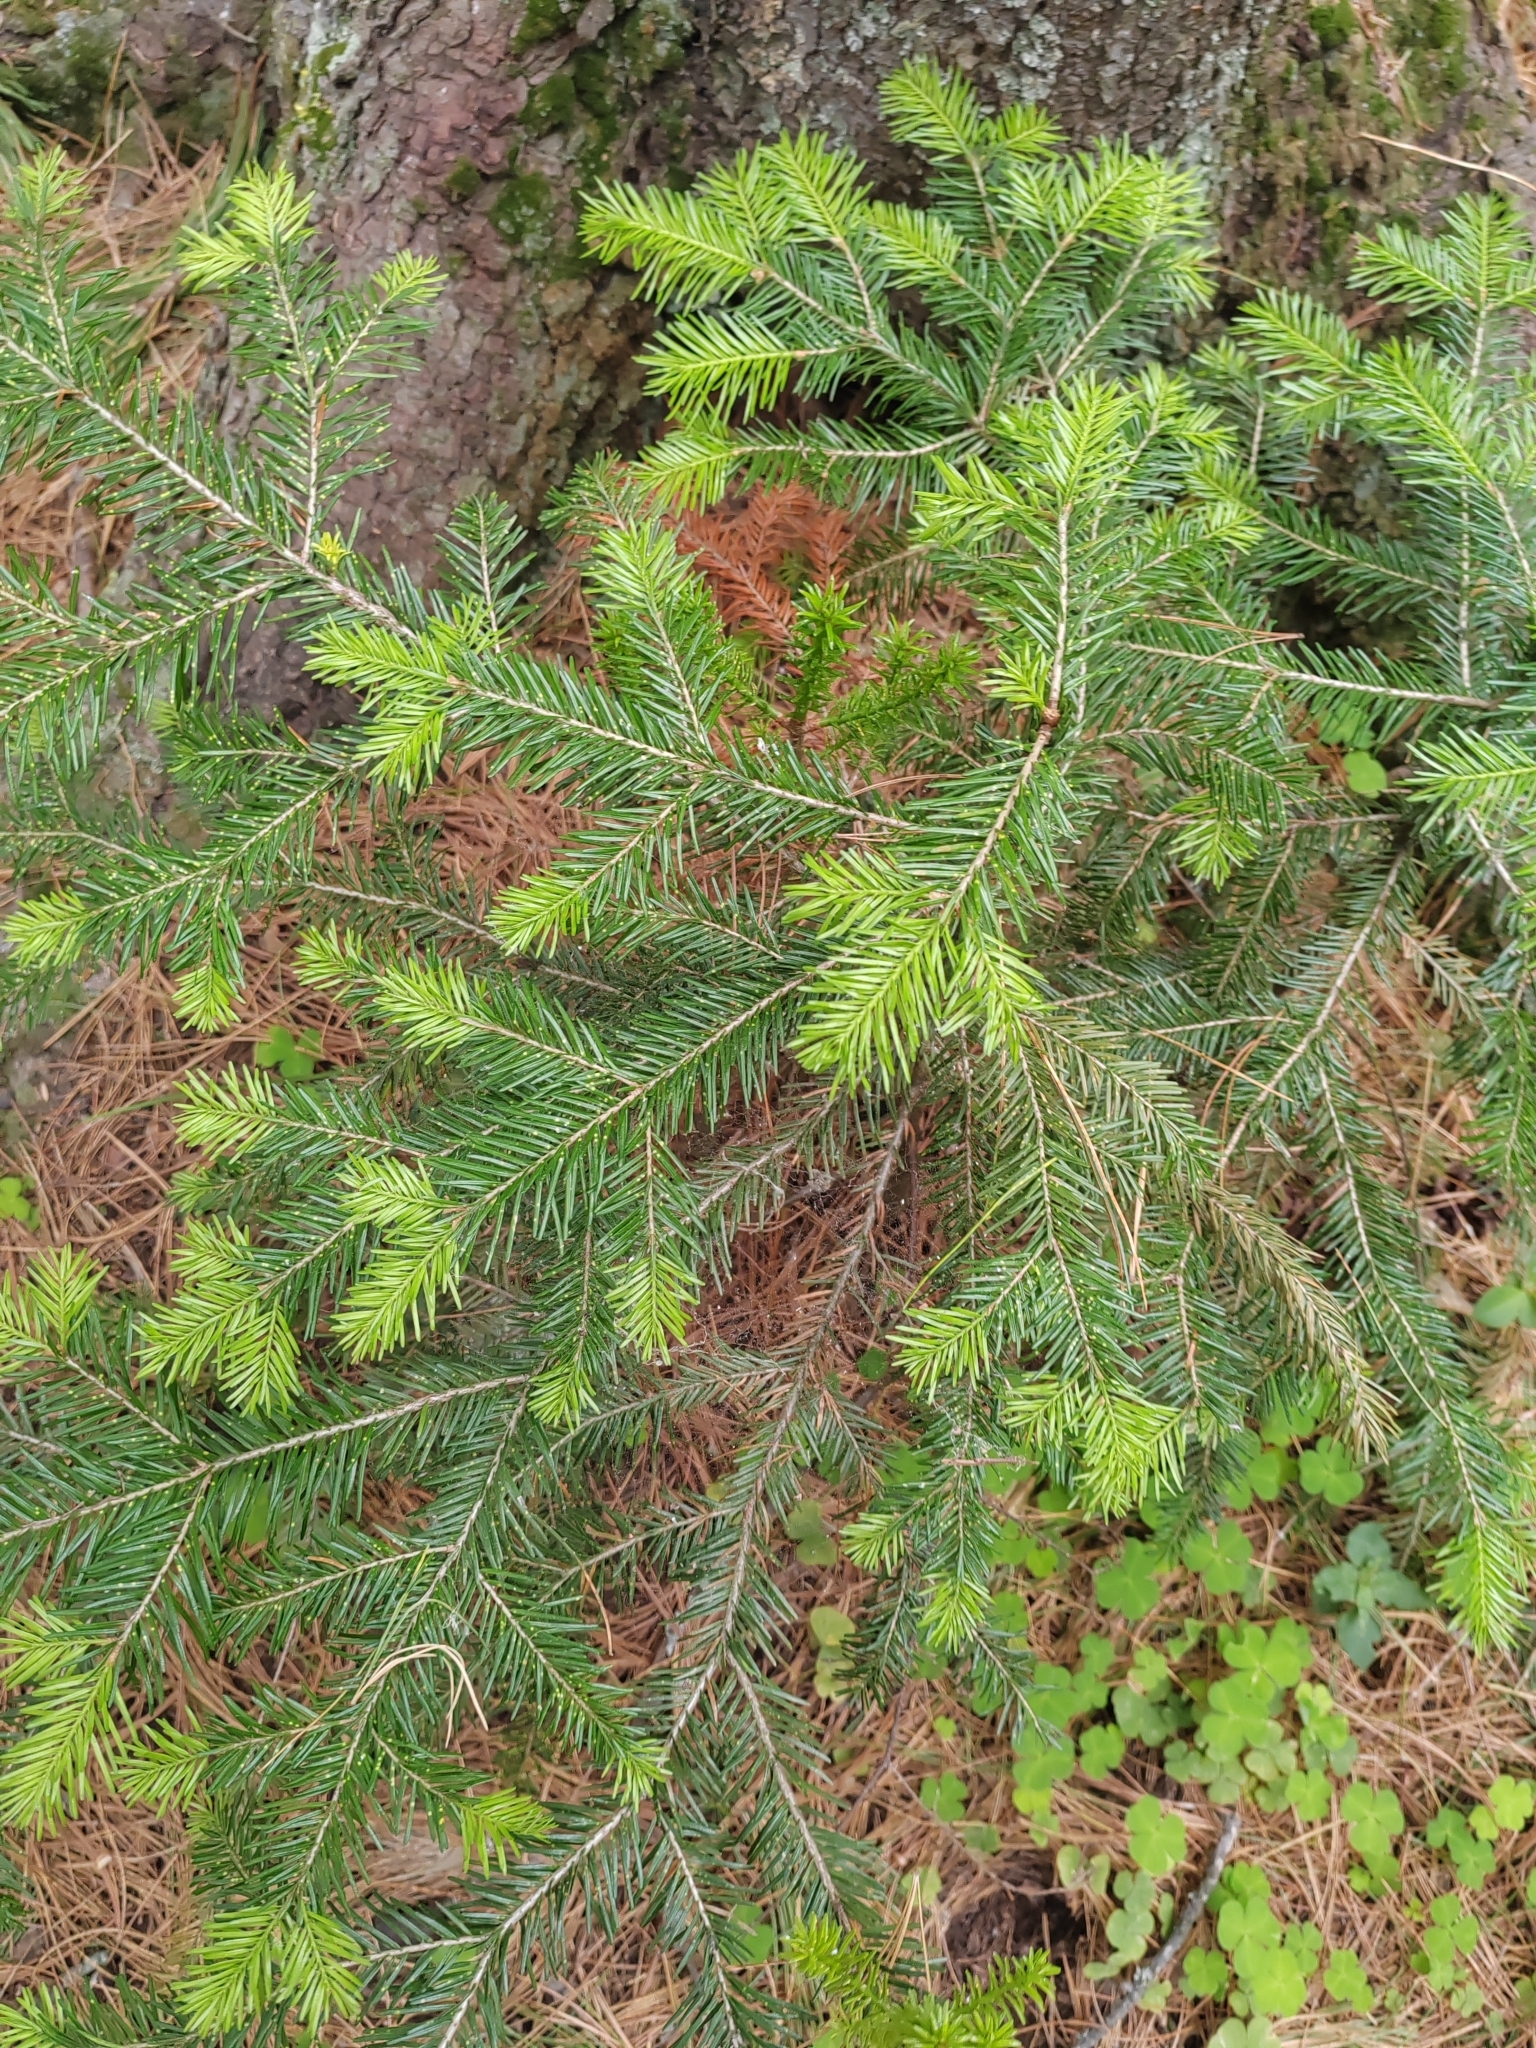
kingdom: Plantae
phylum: Tracheophyta
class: Pinopsida
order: Pinales
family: Pinaceae
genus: Abies
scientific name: Abies sibirica
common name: Siberian fir
